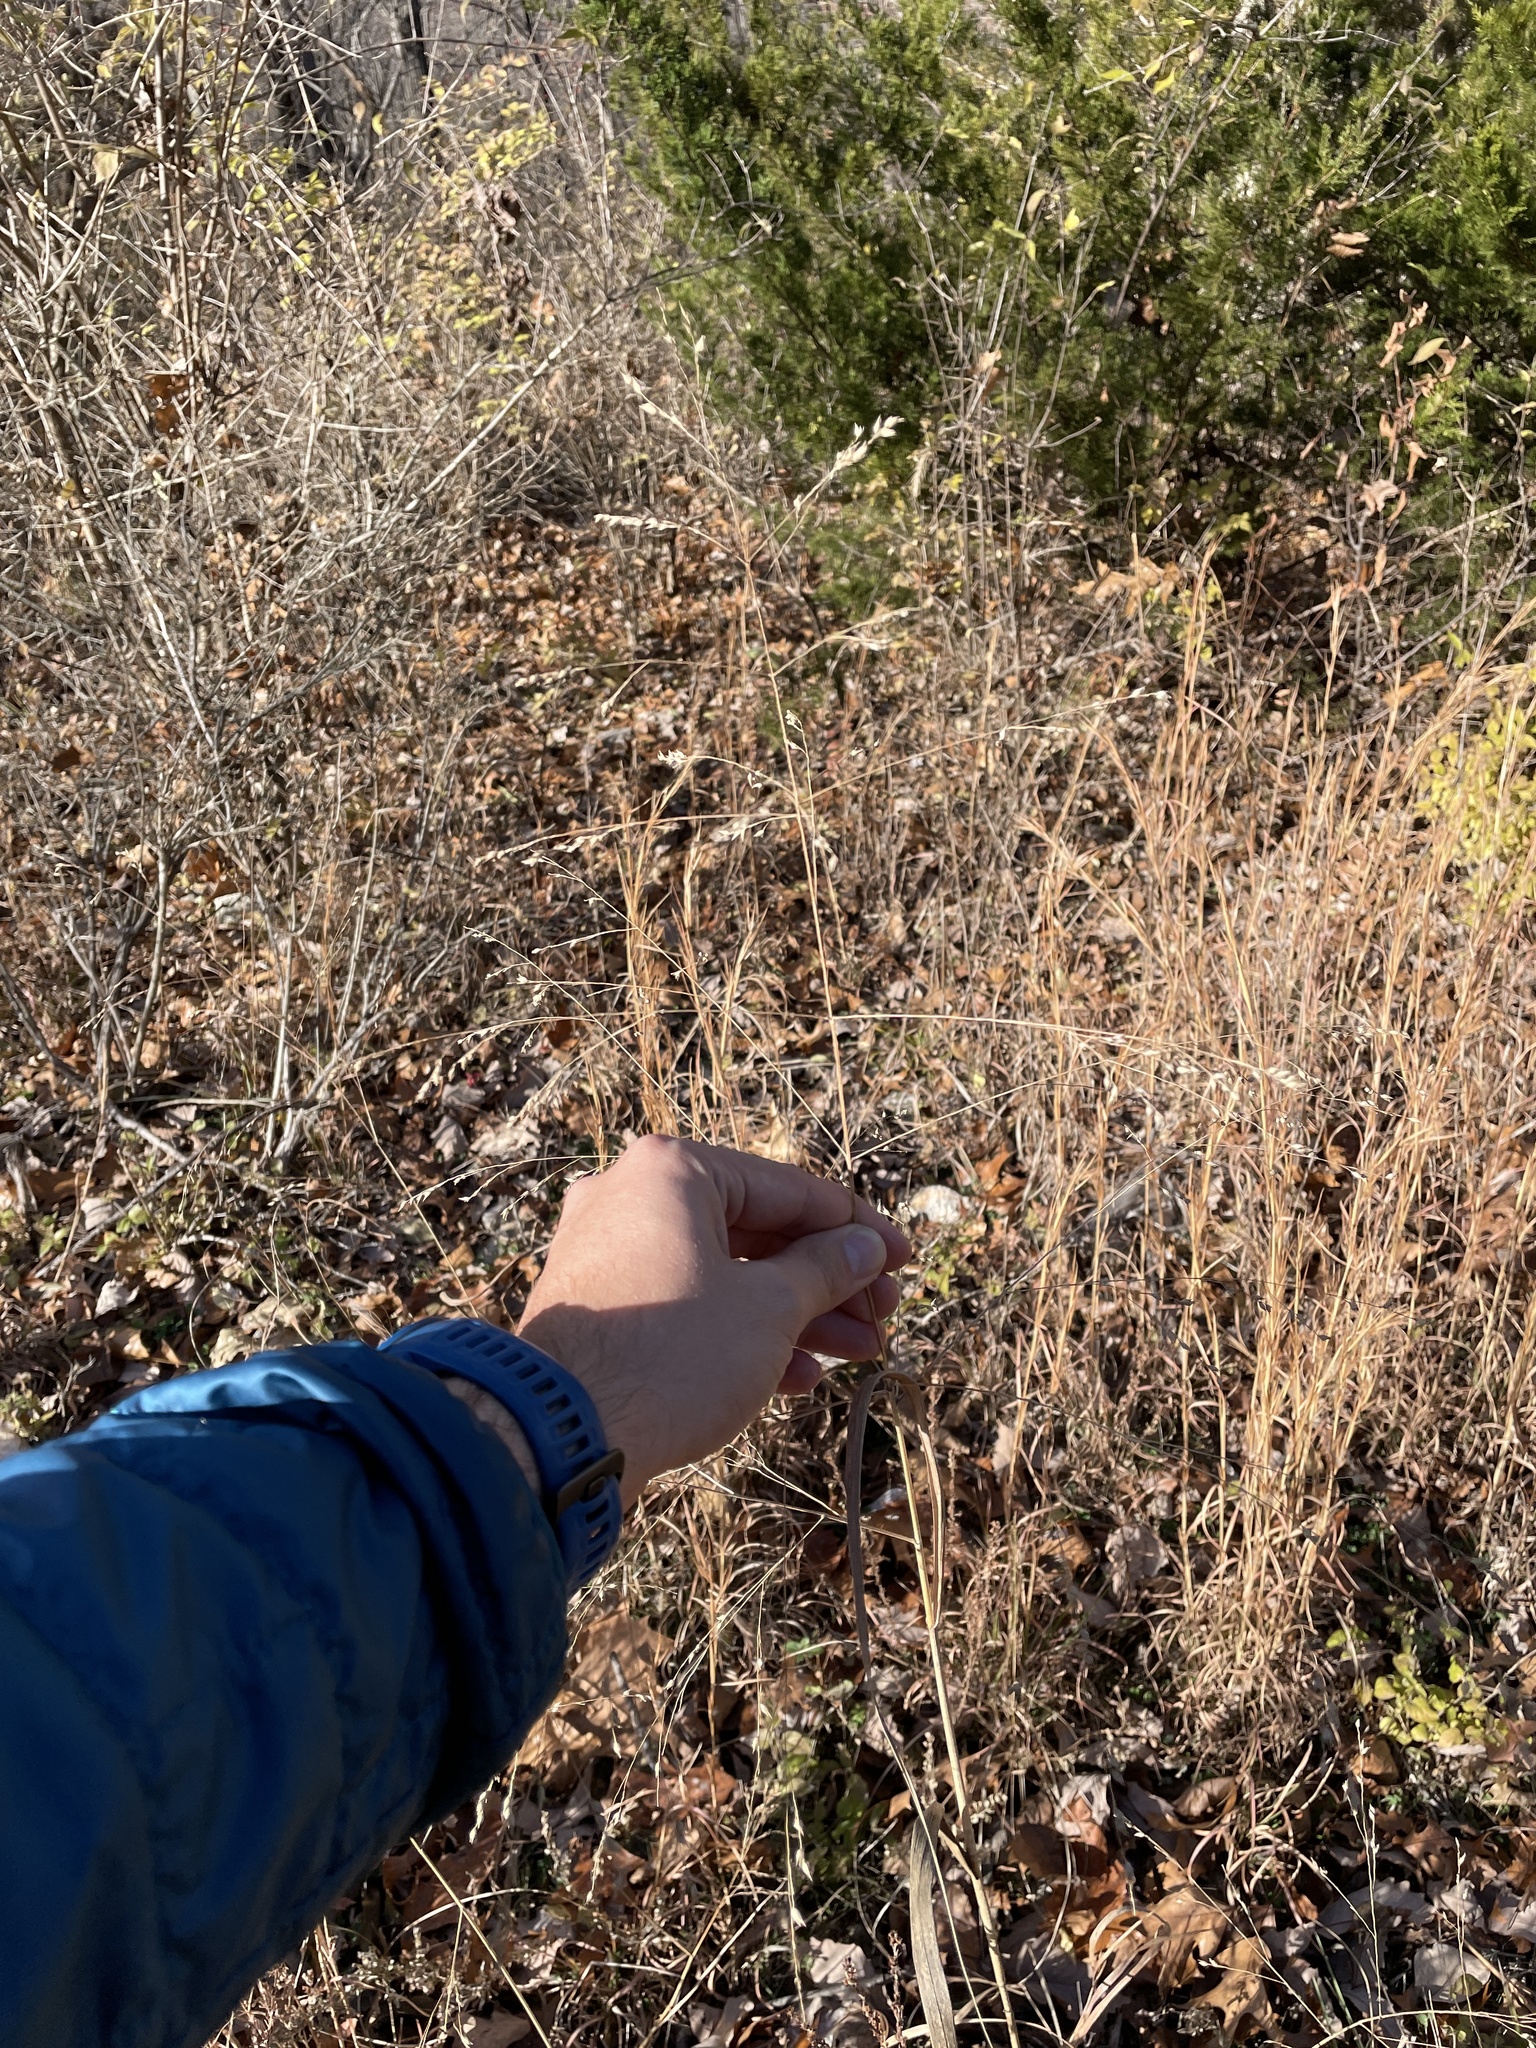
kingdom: Plantae
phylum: Tracheophyta
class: Liliopsida
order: Poales
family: Poaceae
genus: Panicum
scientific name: Panicum virgatum
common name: Switchgrass
